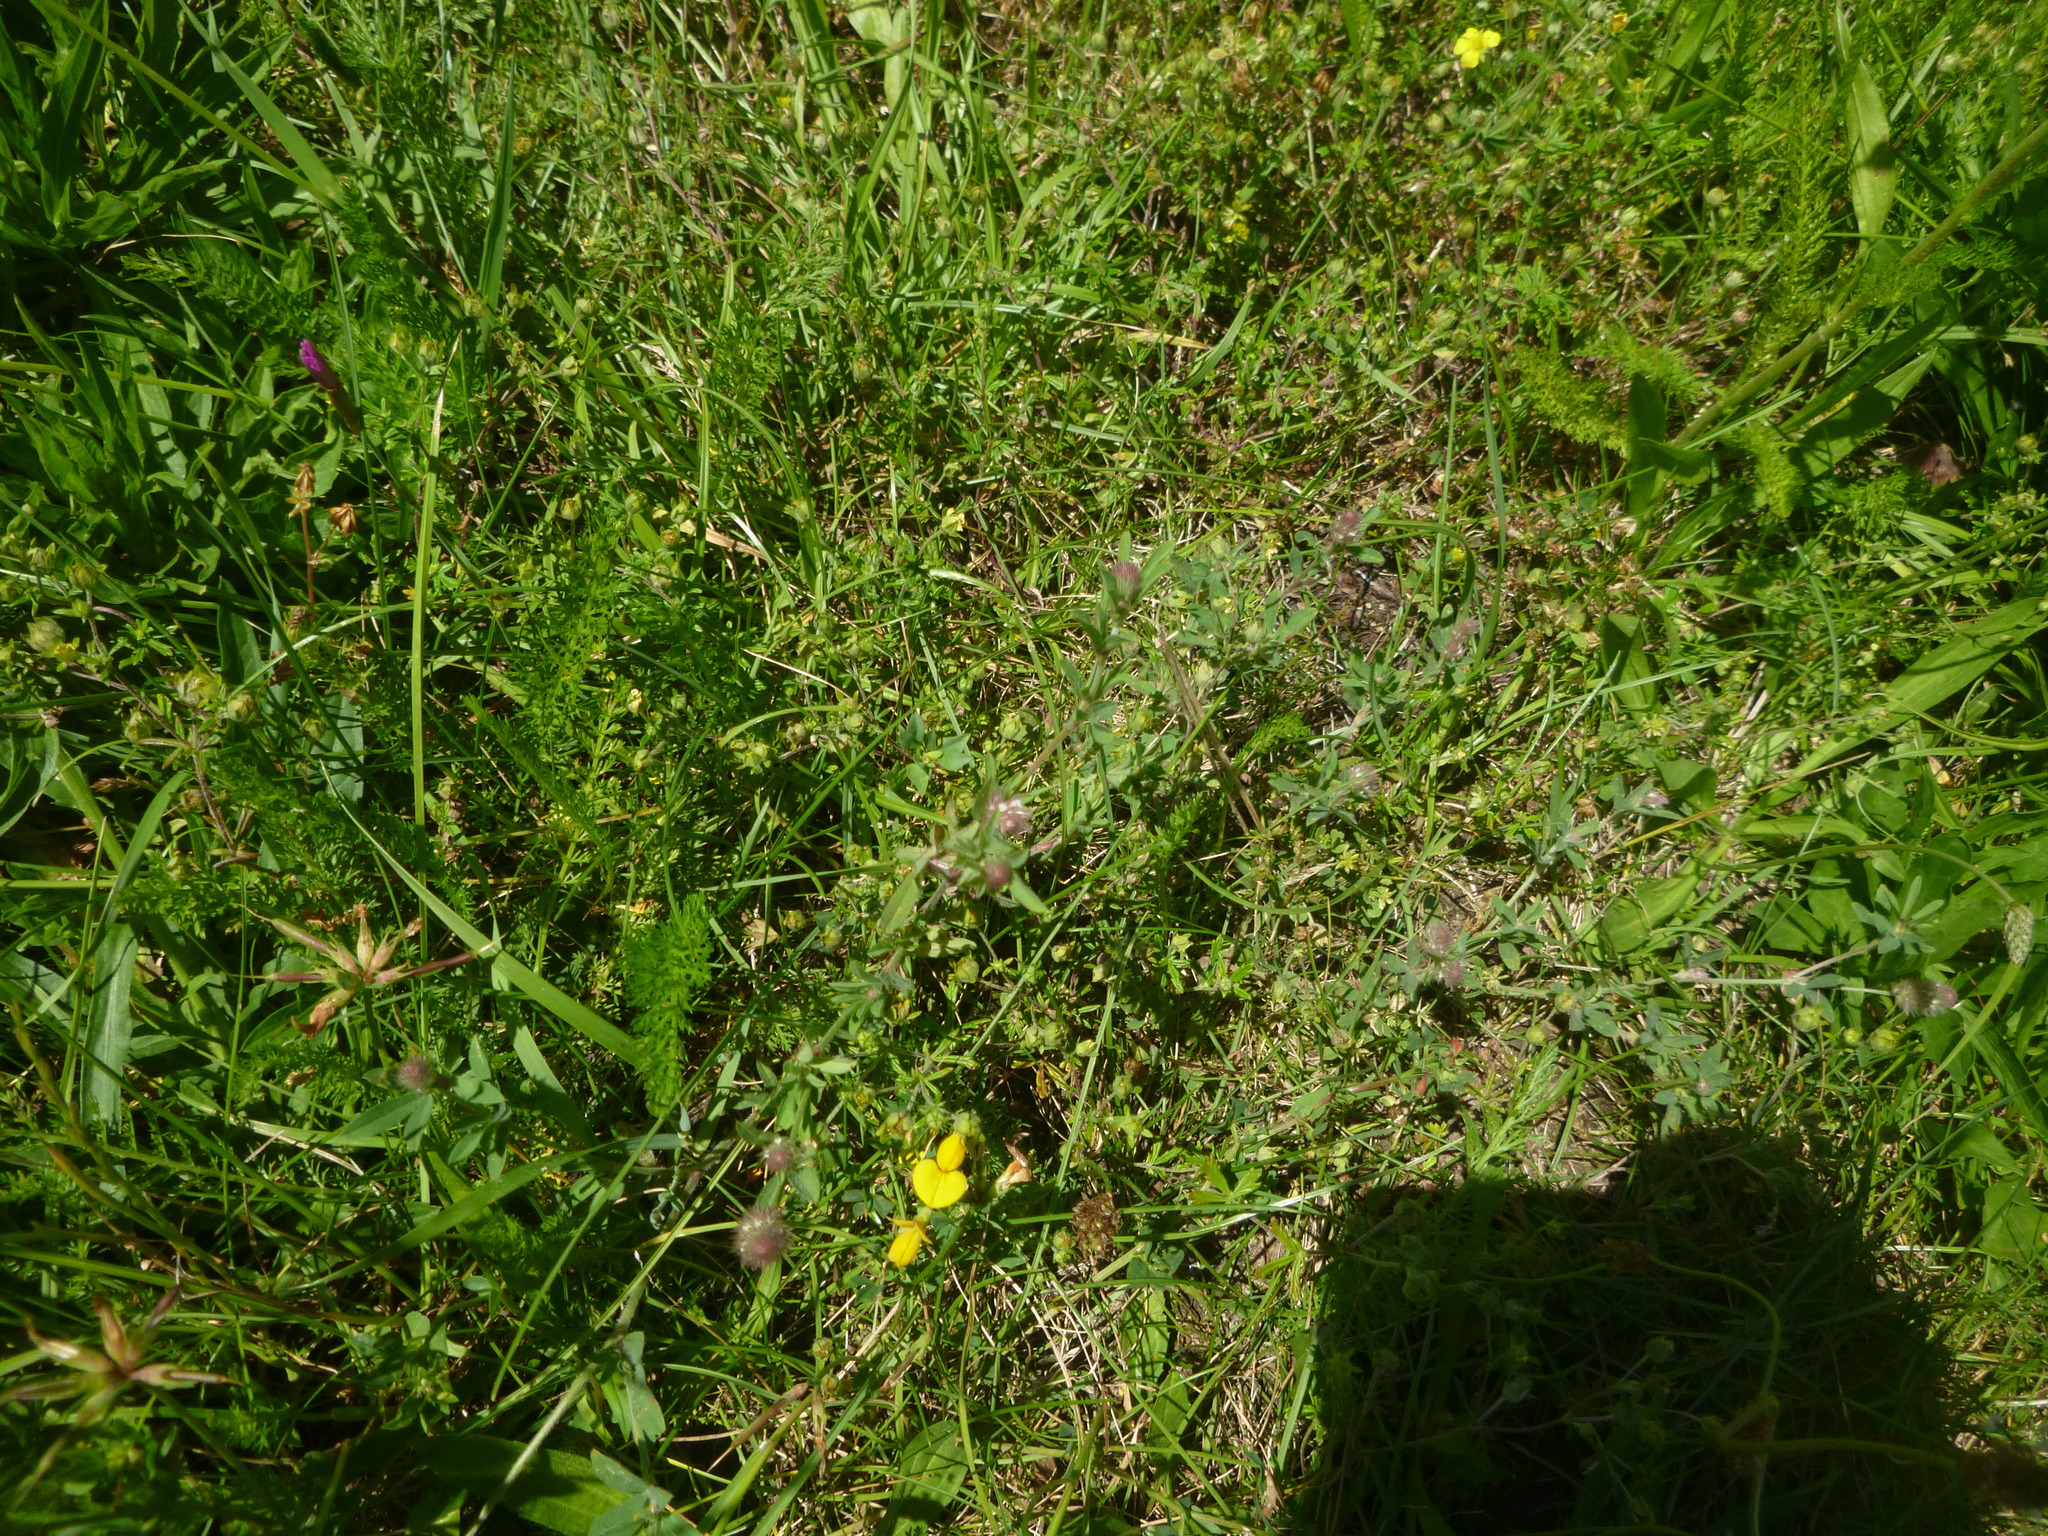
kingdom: Plantae
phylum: Tracheophyta
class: Magnoliopsida
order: Fabales
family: Fabaceae
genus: Trifolium
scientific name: Trifolium arvense
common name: Hare's-foot clover
